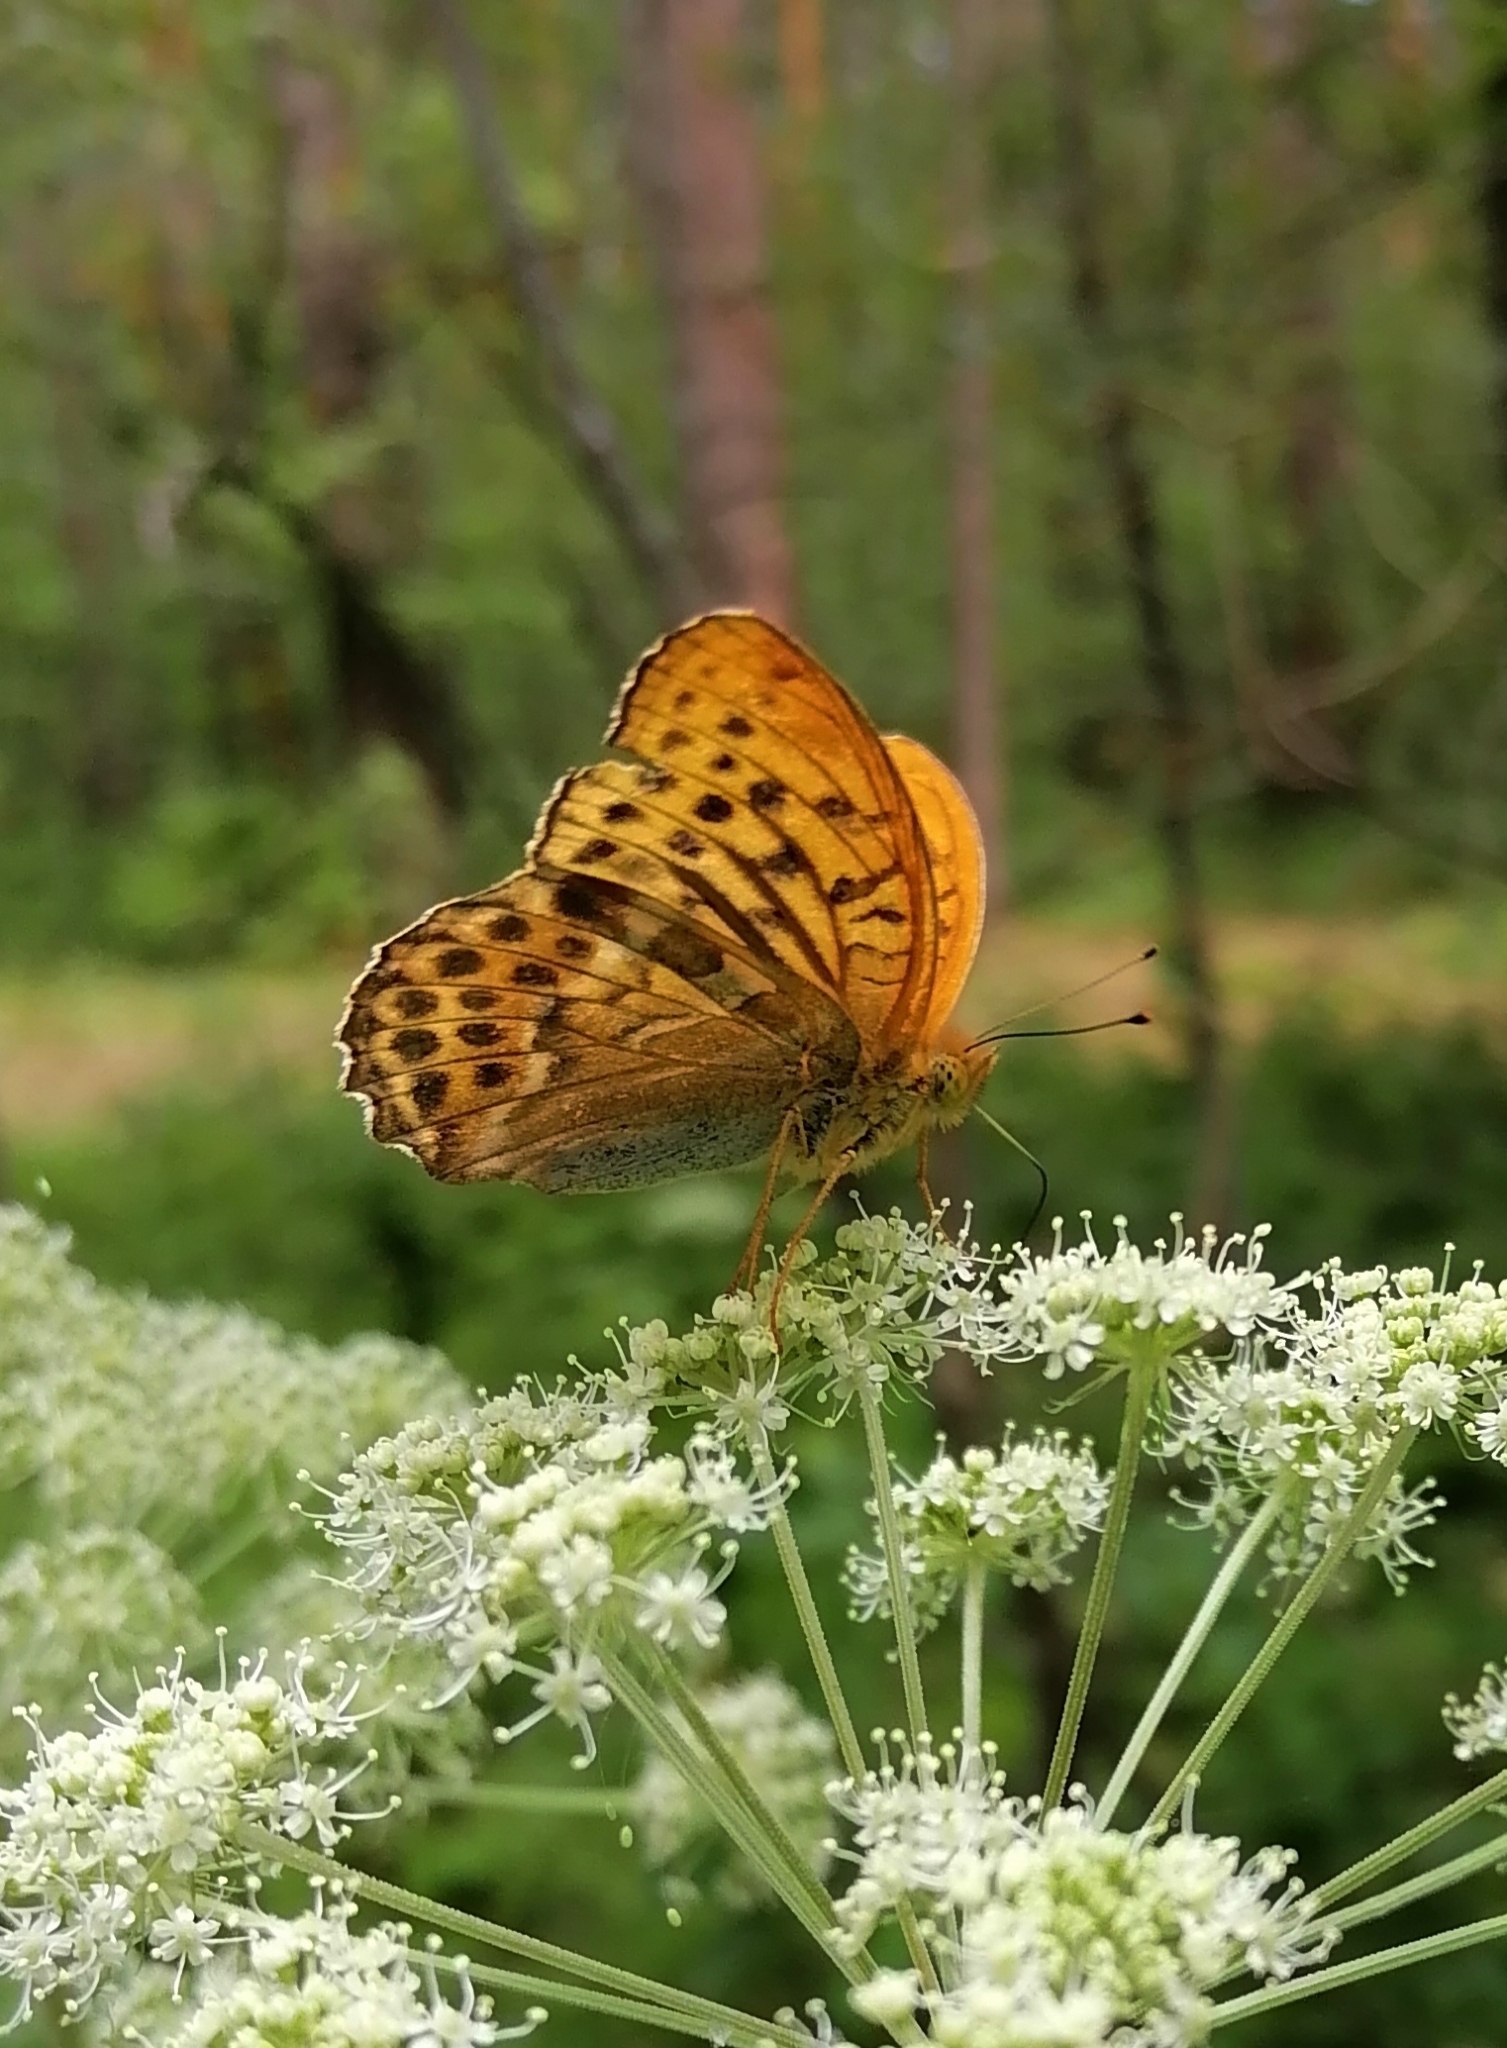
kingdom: Animalia
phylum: Arthropoda
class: Insecta
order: Lepidoptera
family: Nymphalidae
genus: Argynnis
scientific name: Argynnis paphia
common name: Silver-washed fritillary
